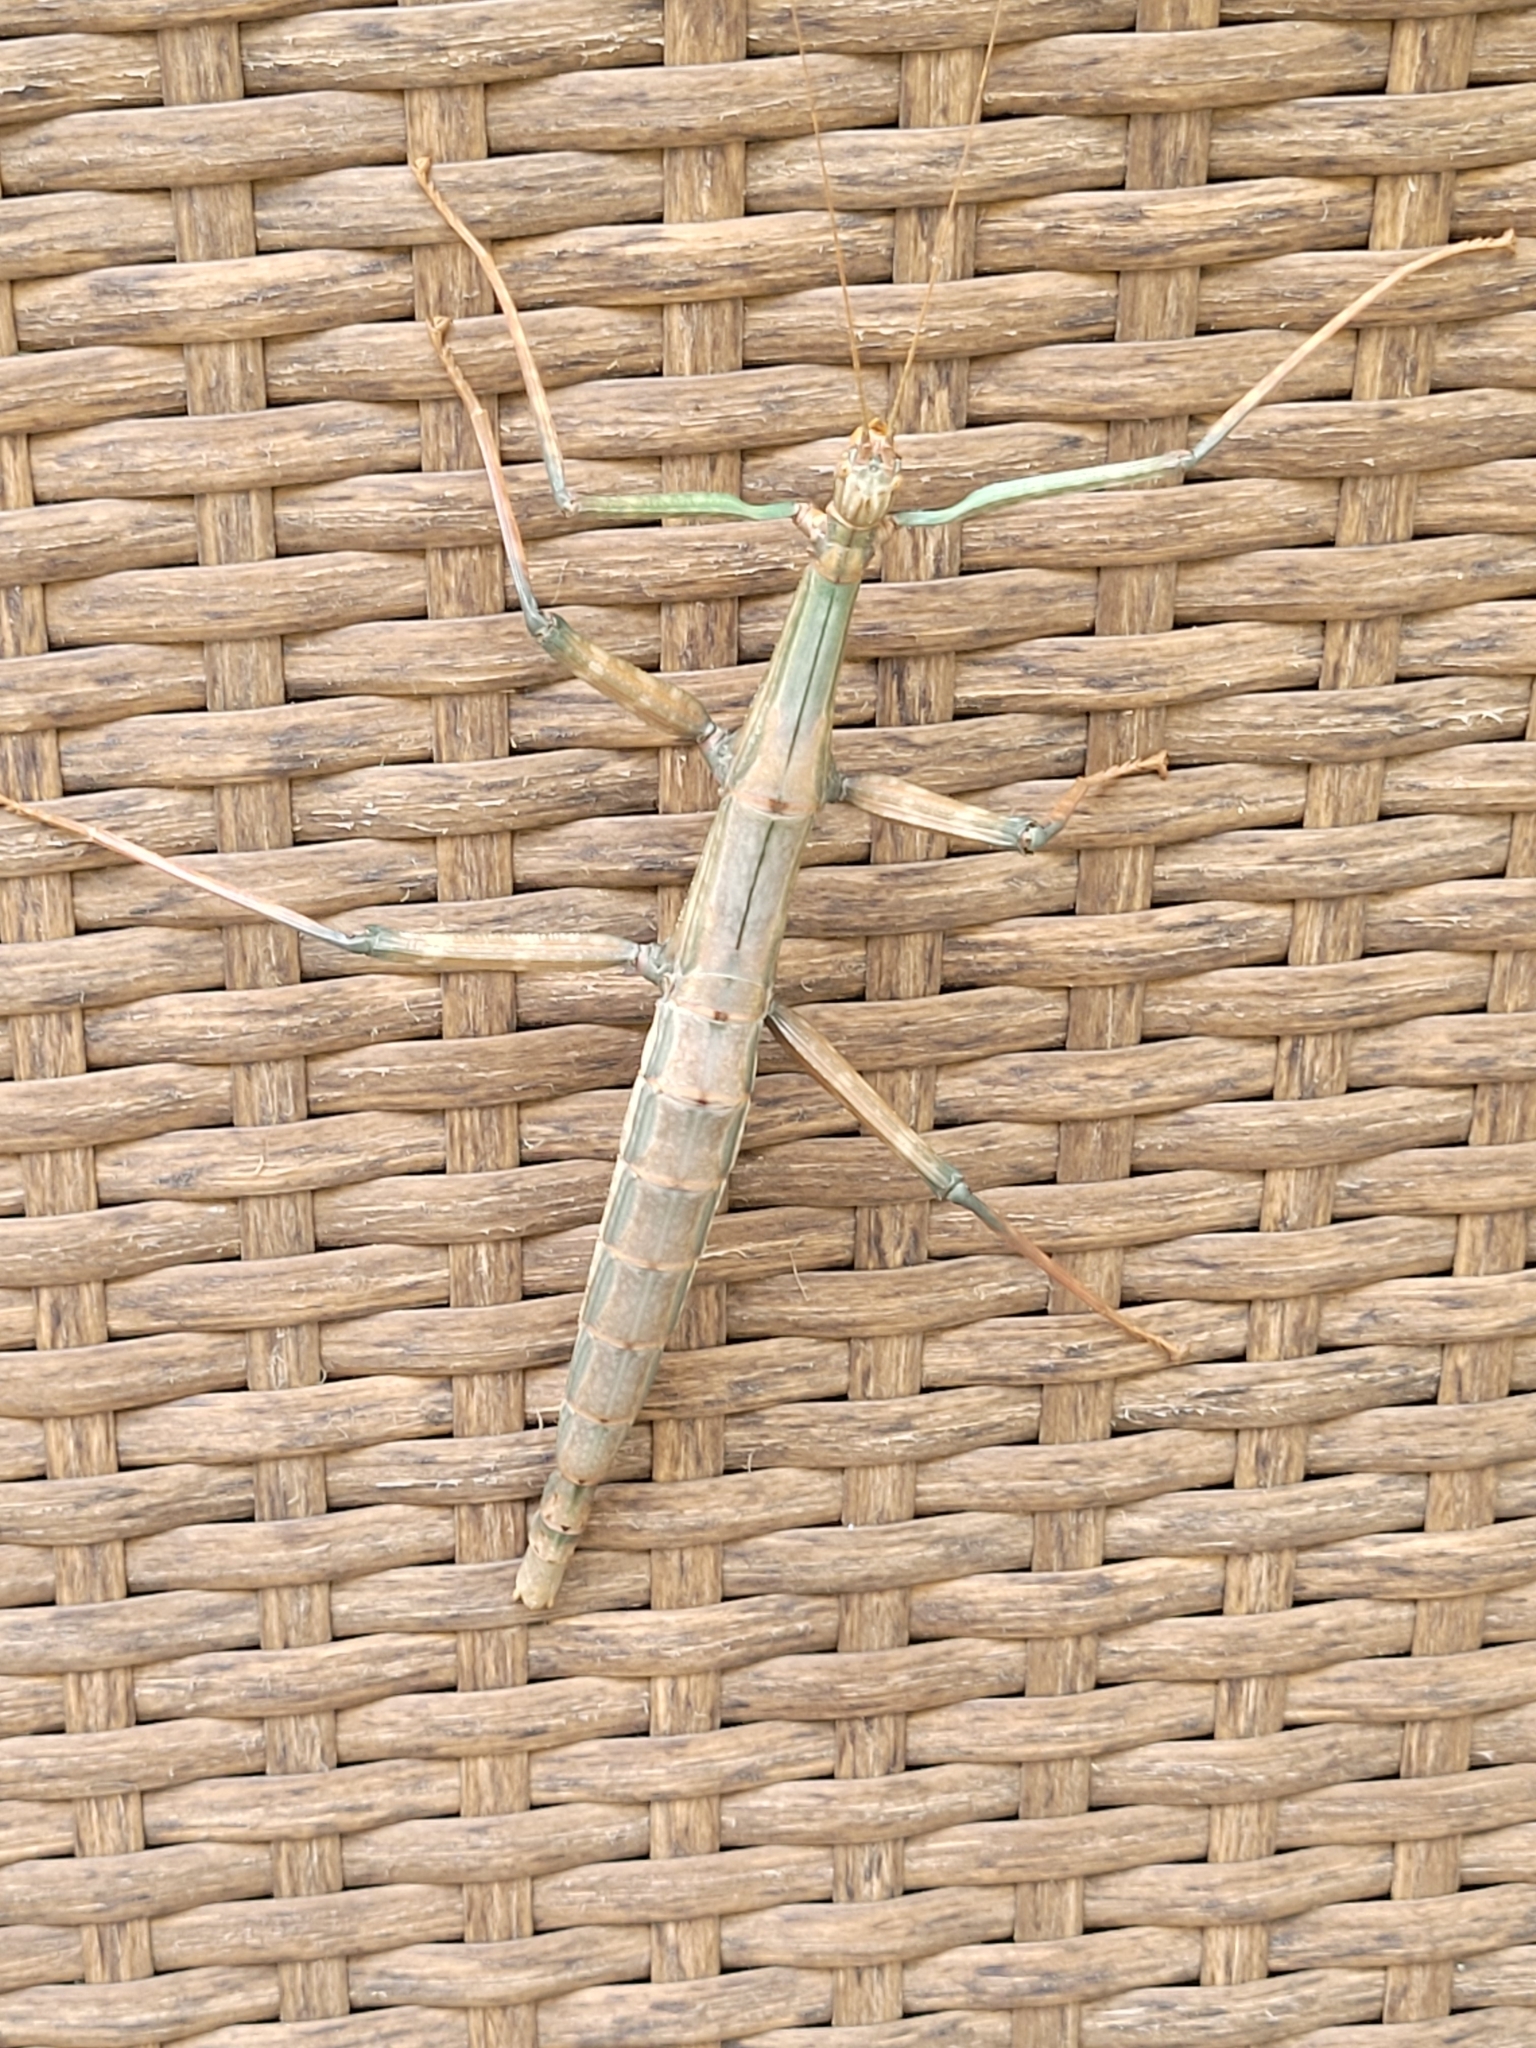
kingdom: Animalia
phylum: Arthropoda
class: Insecta
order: Phasmida
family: Diapheromeridae
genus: Megaphasma
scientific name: Megaphasma denticrus
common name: Giant walkingstick
